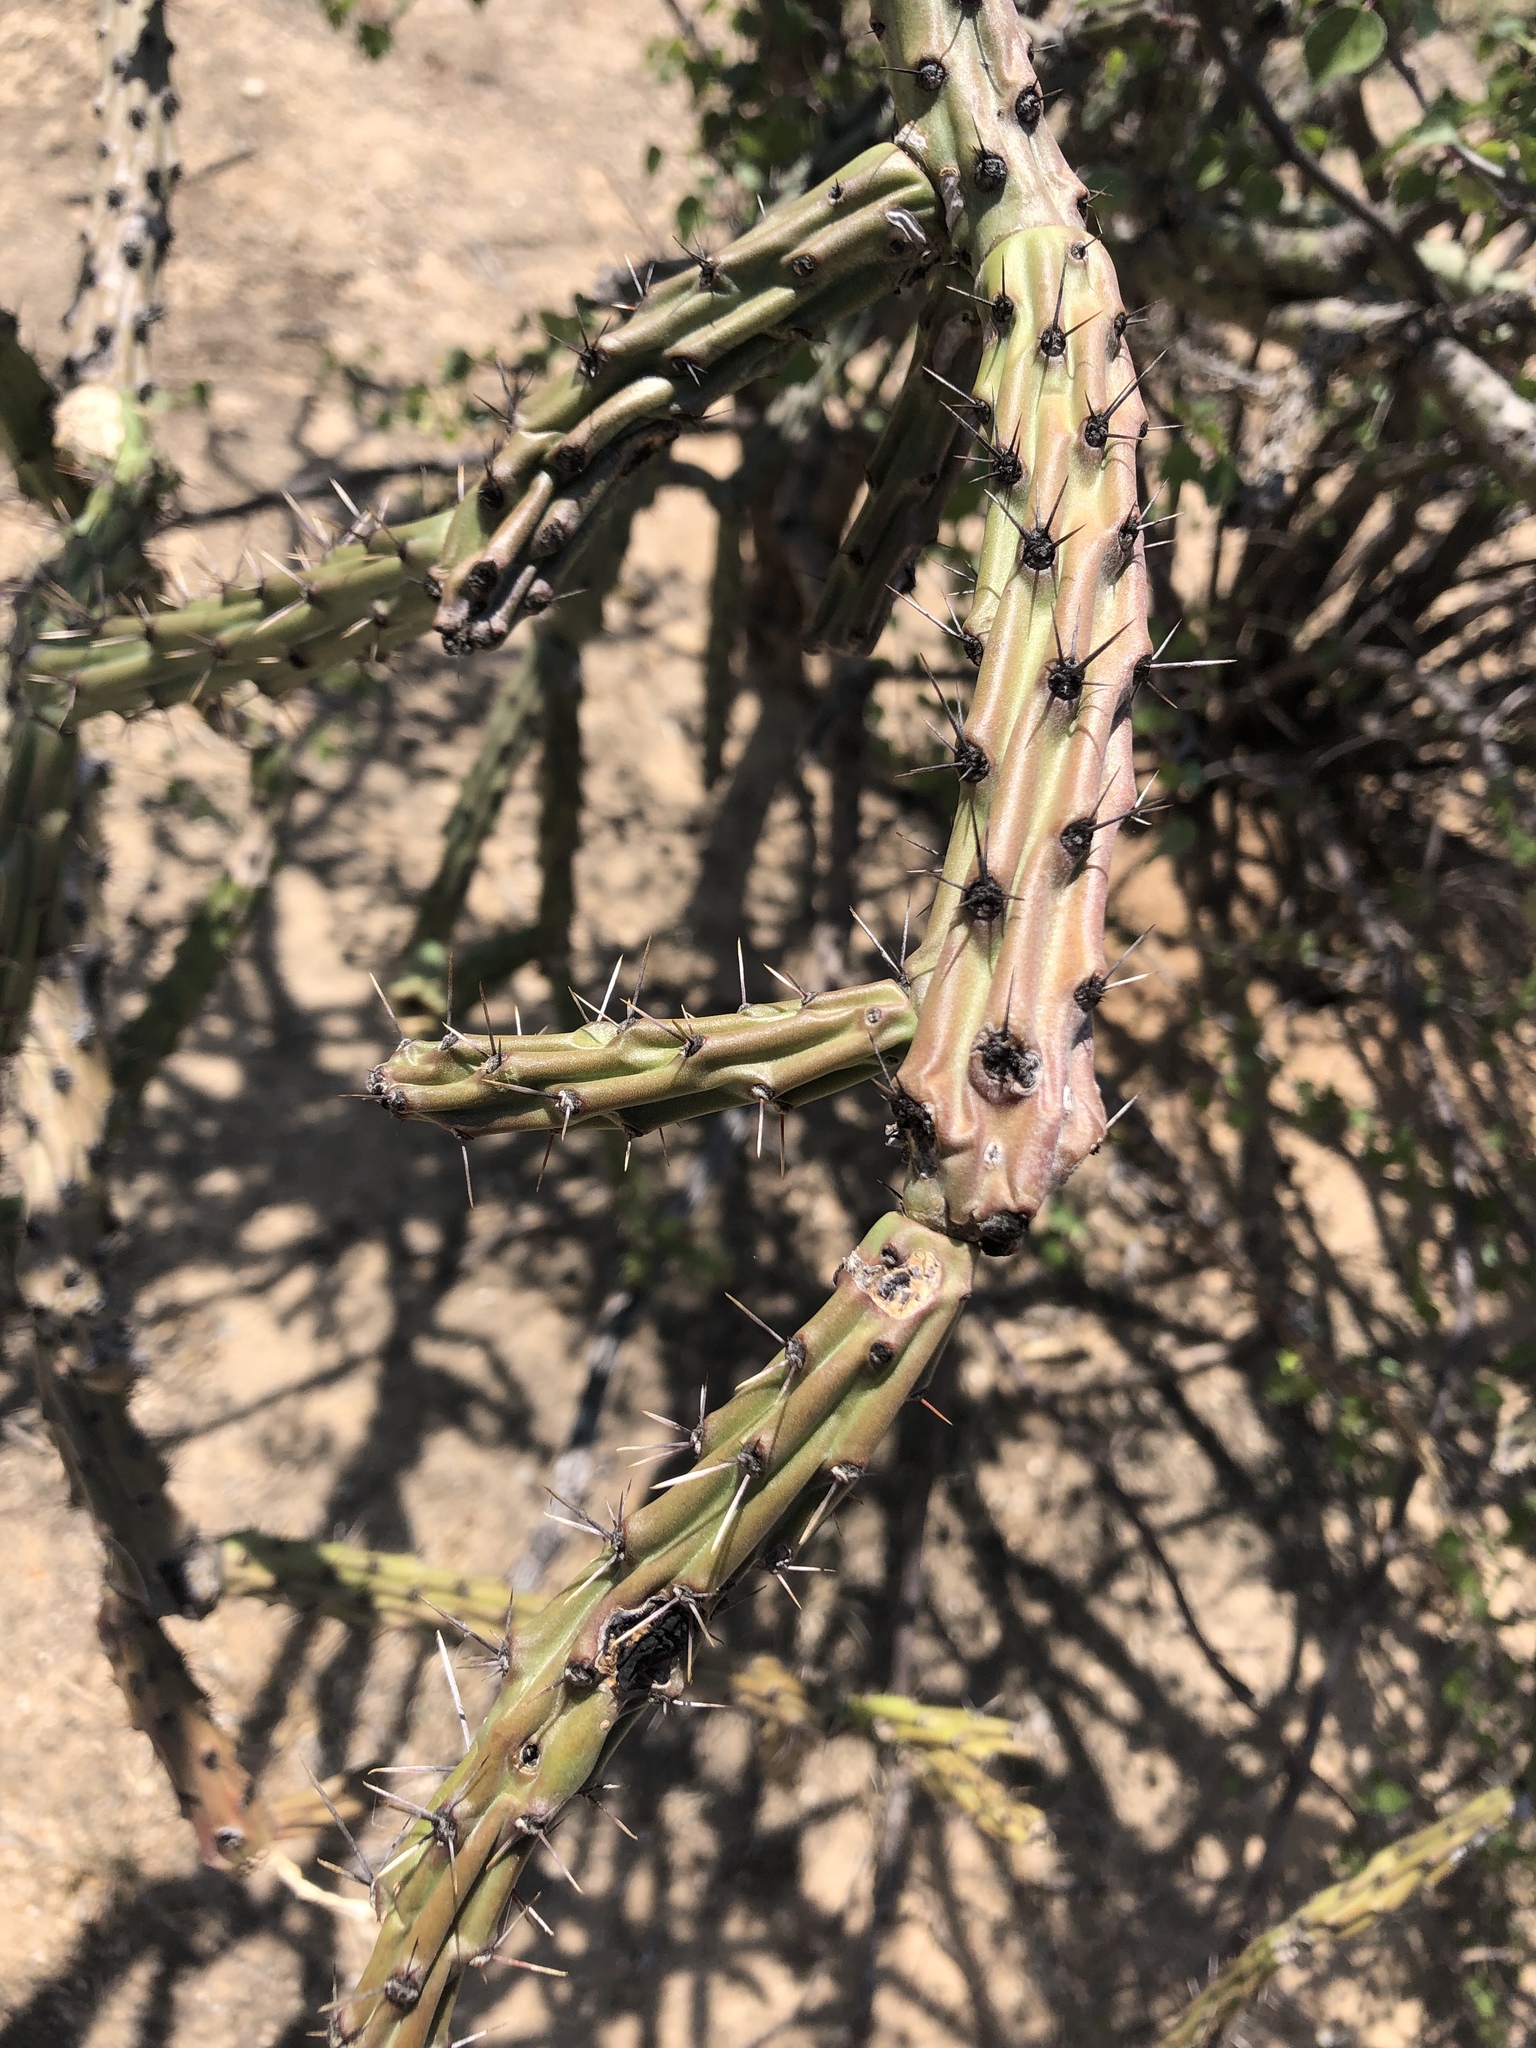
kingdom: Plantae
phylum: Tracheophyta
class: Magnoliopsida
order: Caryophyllales
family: Cactaceae
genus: Cylindropuntia
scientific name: Cylindropuntia thurberi
